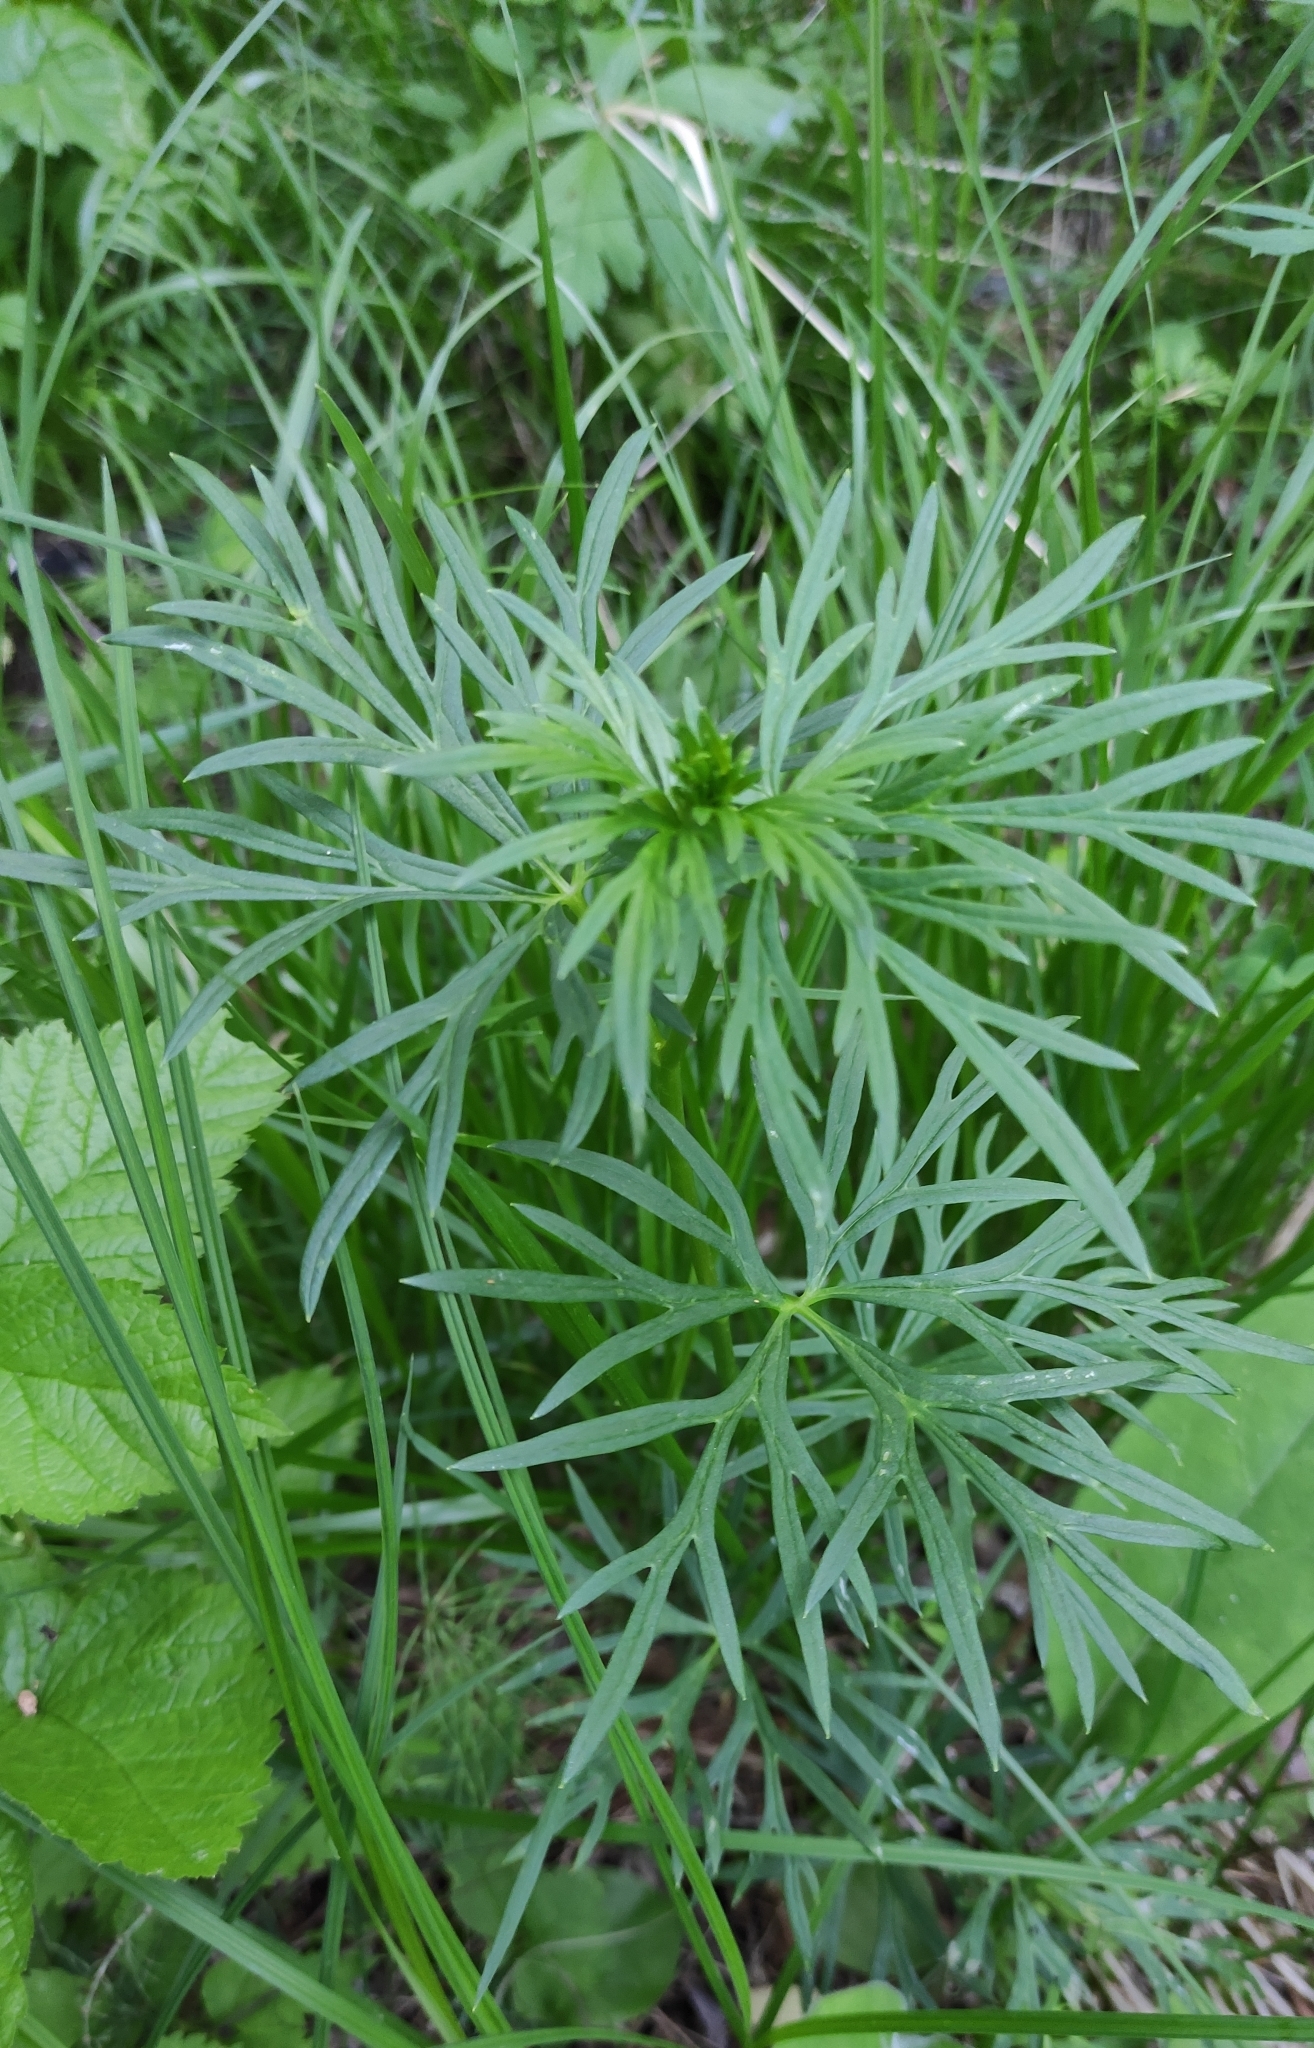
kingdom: Plantae
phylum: Tracheophyta
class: Magnoliopsida
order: Ranunculales
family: Ranunculaceae
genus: Ranunculus
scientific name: Ranunculus polyanthemos
